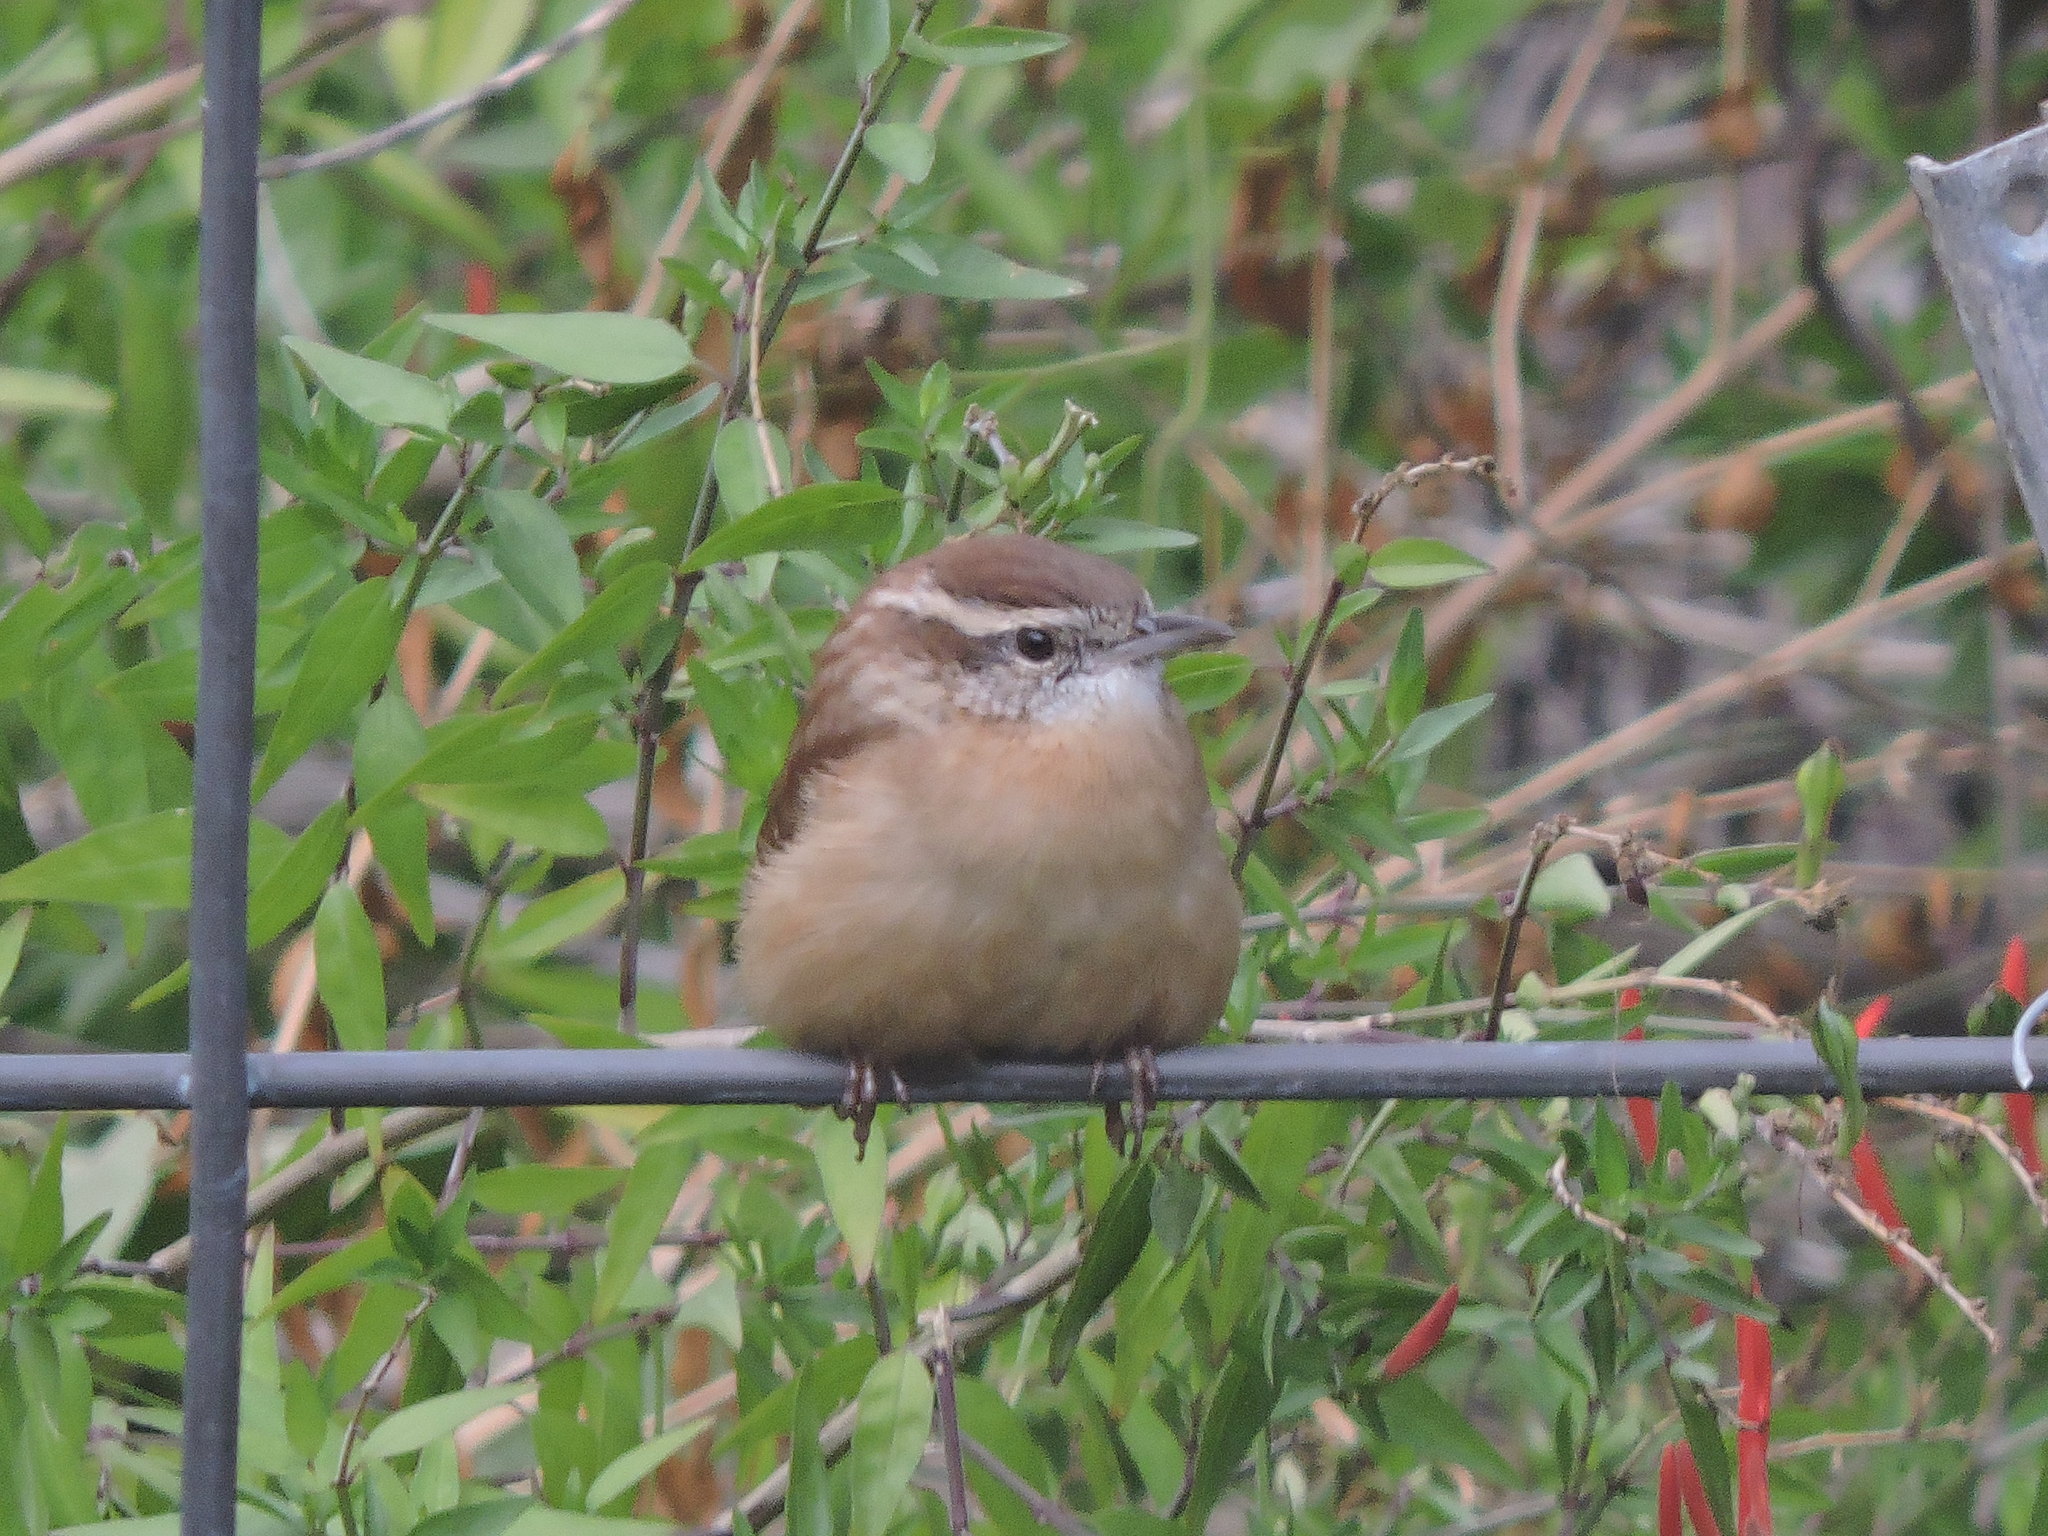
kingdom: Animalia
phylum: Chordata
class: Aves
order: Passeriformes
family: Troglodytidae
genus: Thryothorus
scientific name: Thryothorus ludovicianus
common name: Carolina wren
